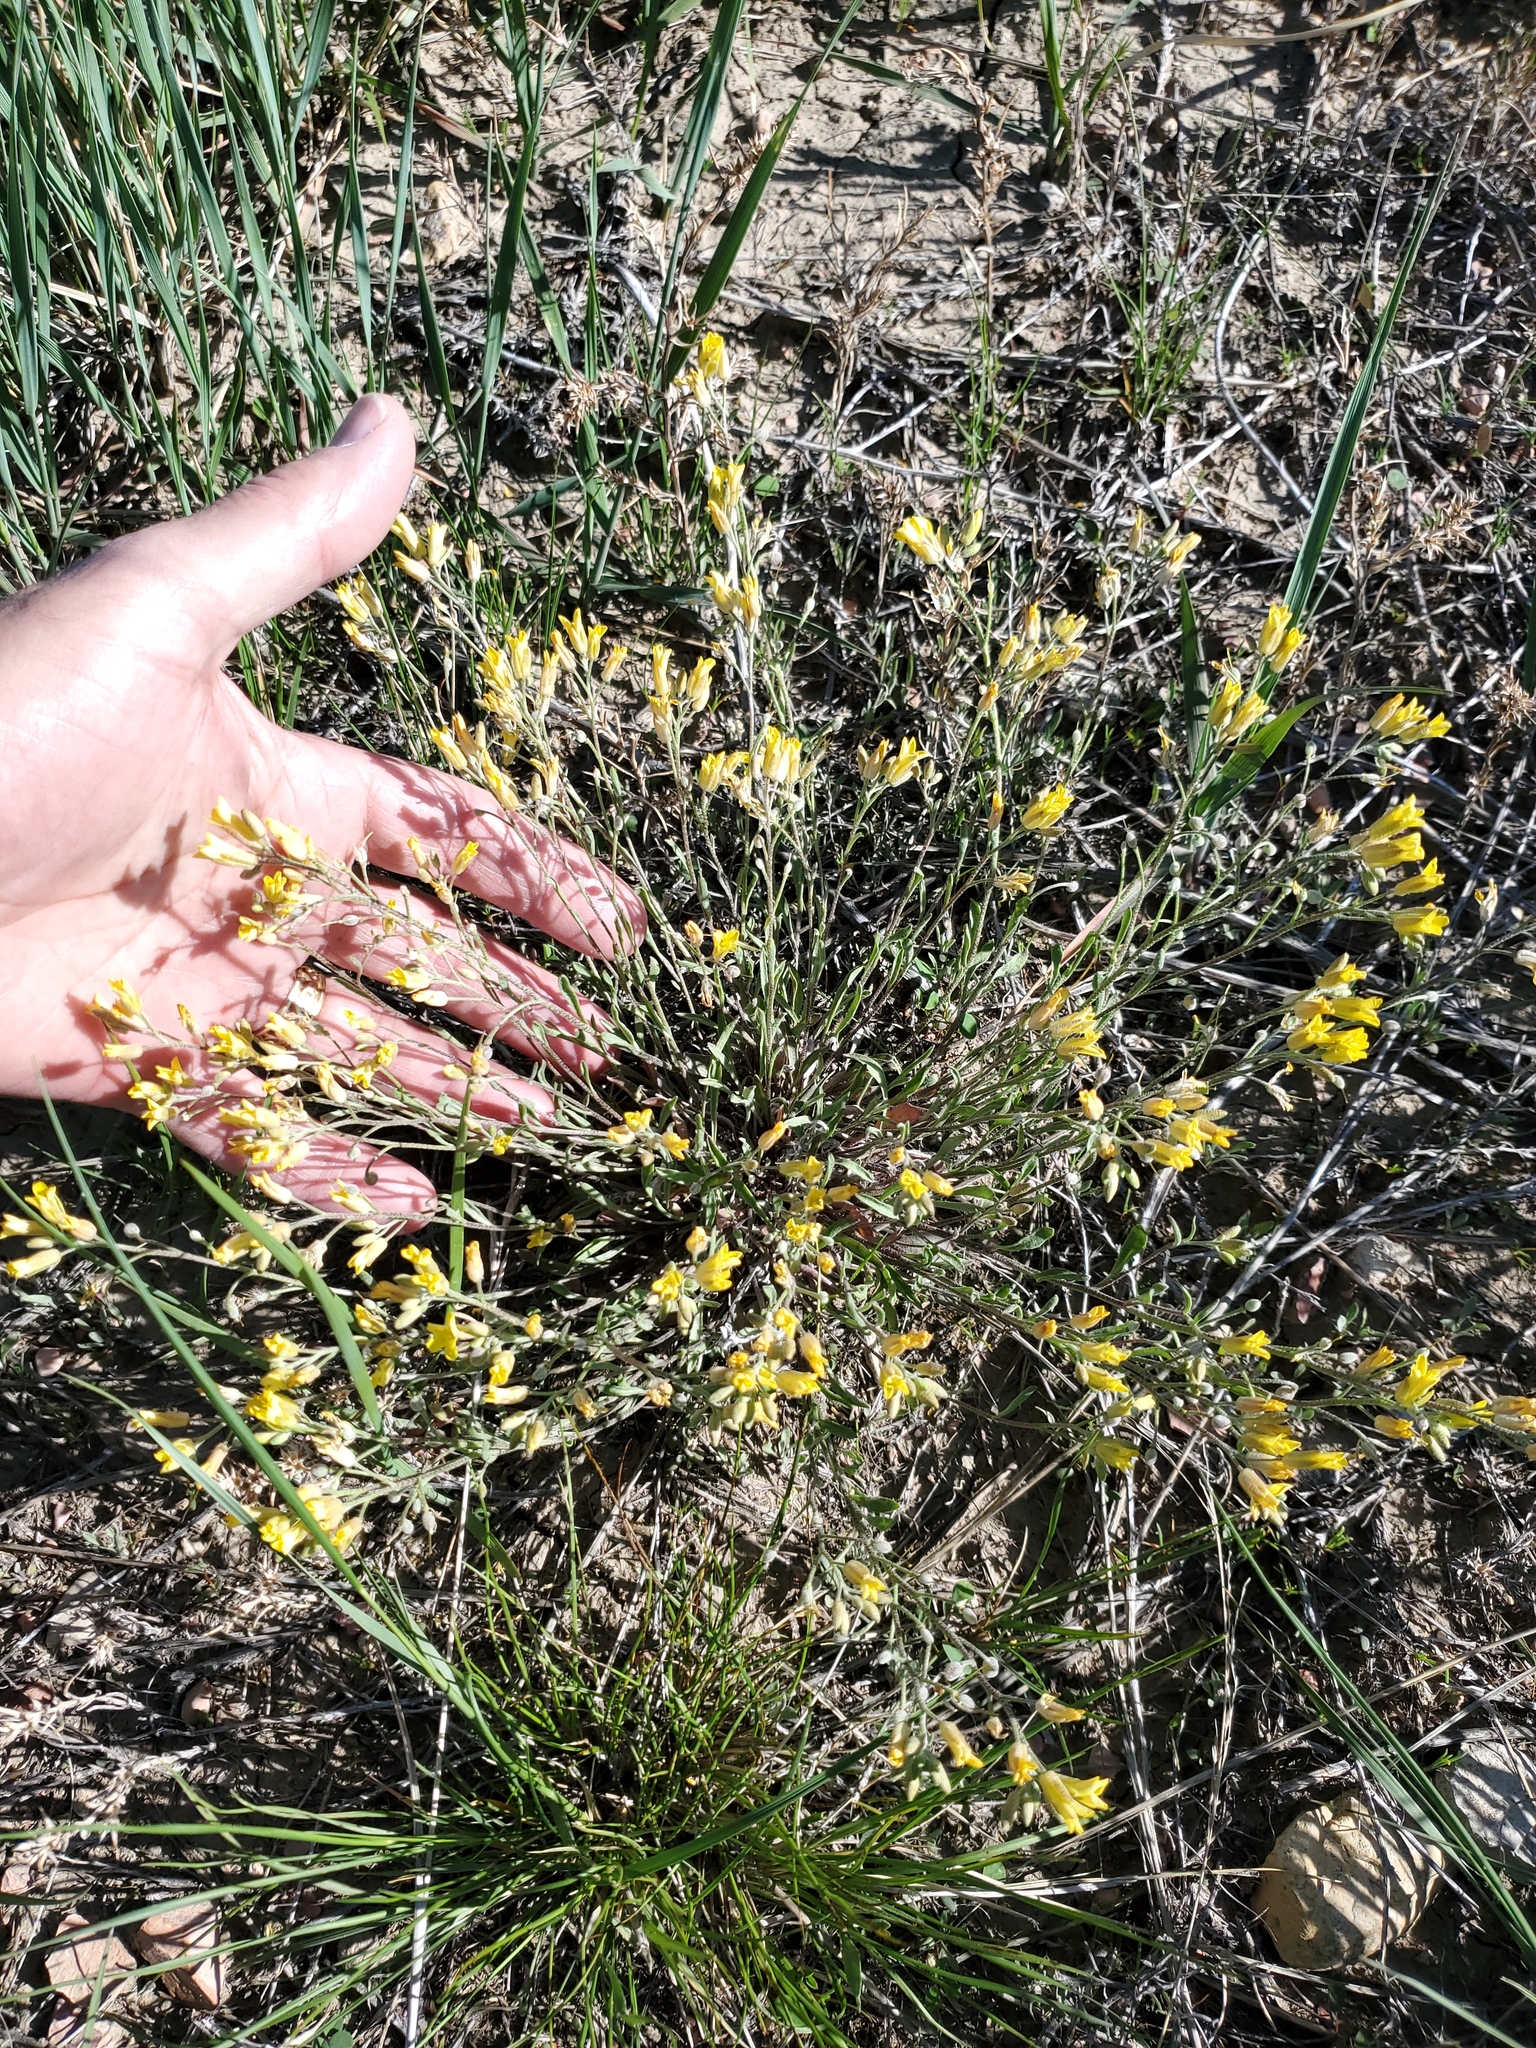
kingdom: Plantae
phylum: Tracheophyta
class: Magnoliopsida
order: Brassicales
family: Brassicaceae
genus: Physaria
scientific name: Physaria arenosa
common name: Great plains bladderpod
